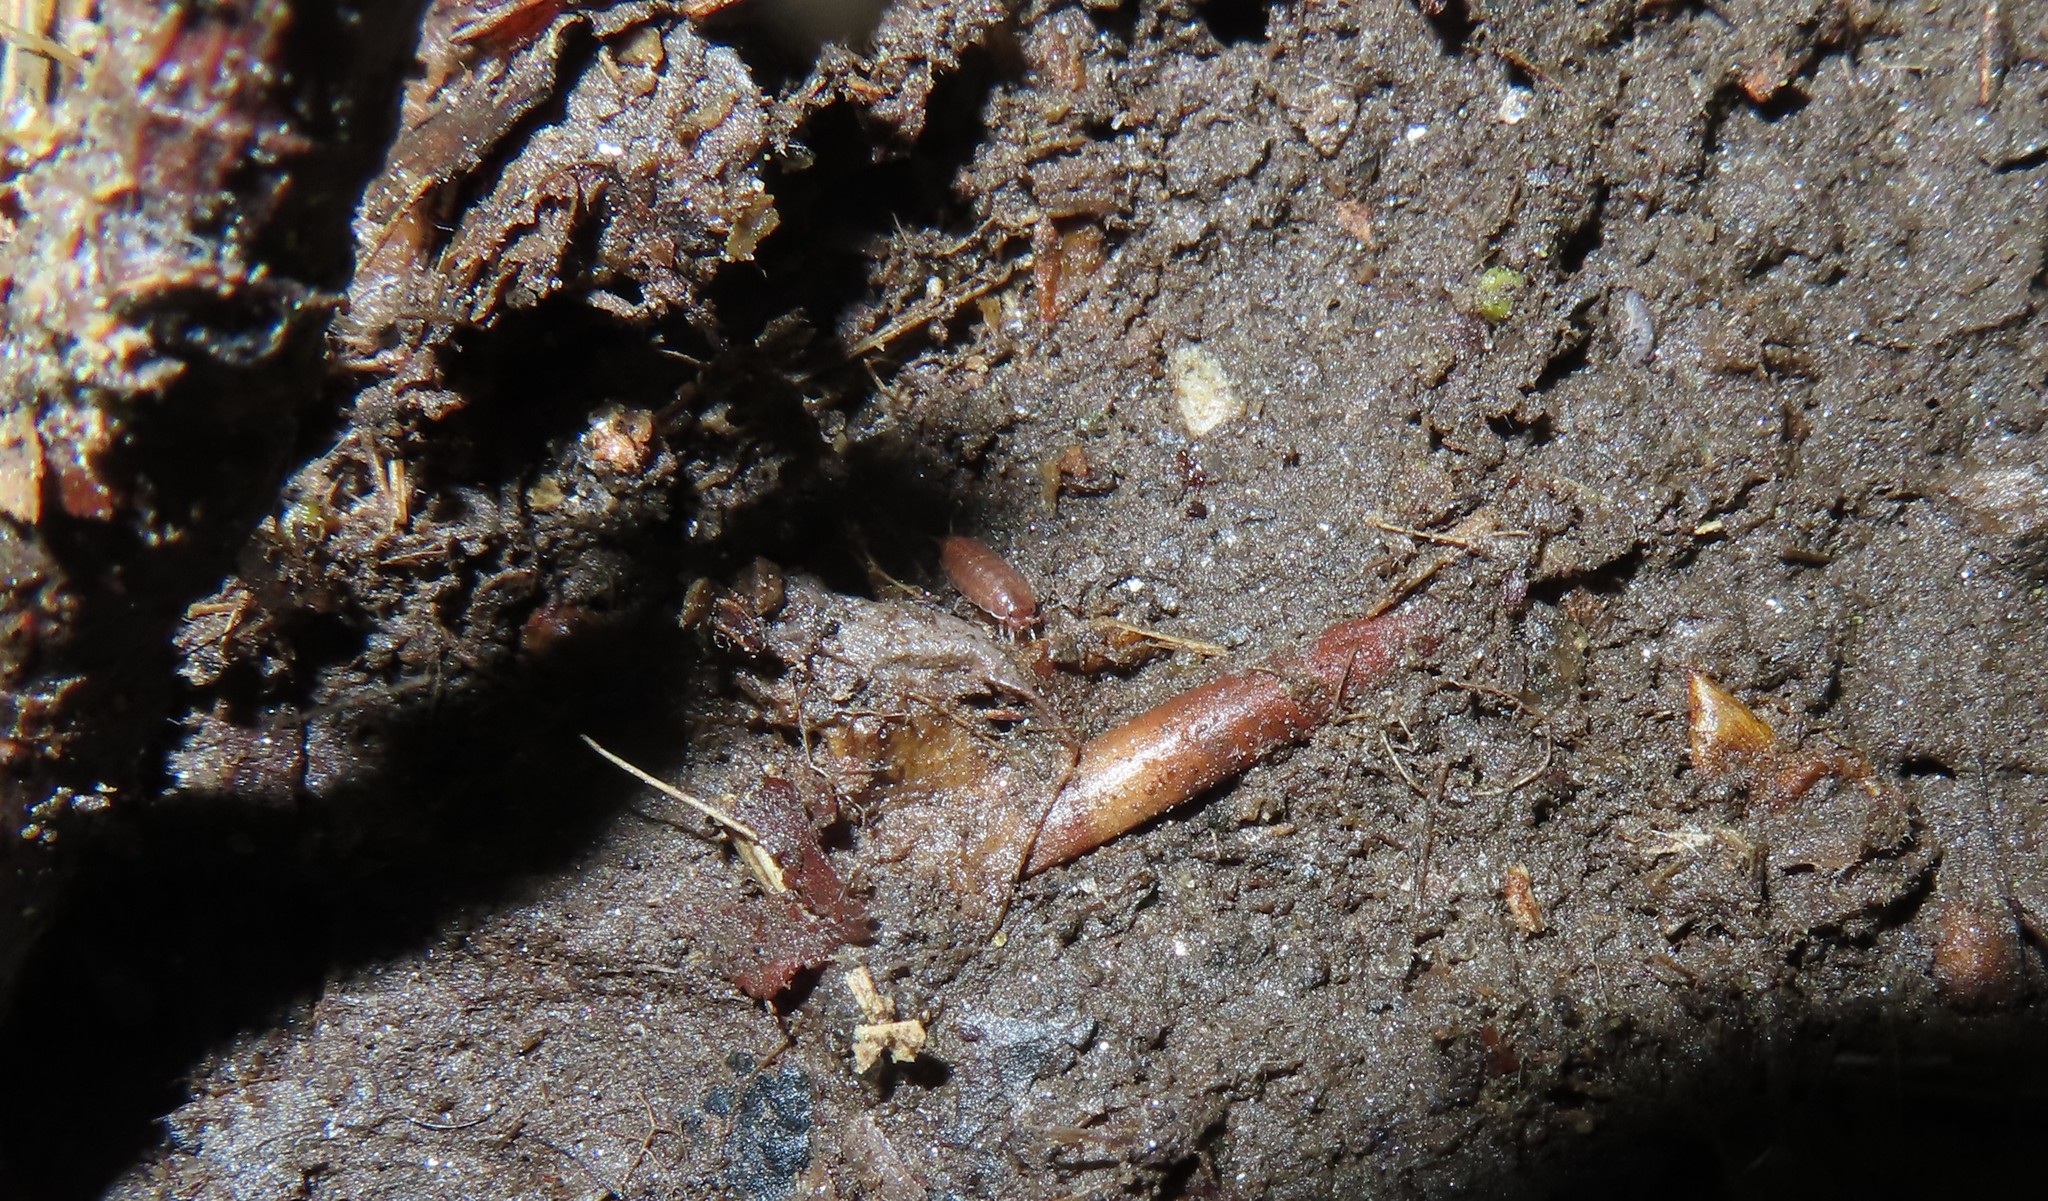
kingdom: Animalia
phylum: Arthropoda
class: Malacostraca
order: Isopoda
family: Trichoniscidae
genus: Hyloniscus
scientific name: Hyloniscus riparius
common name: Isopod
